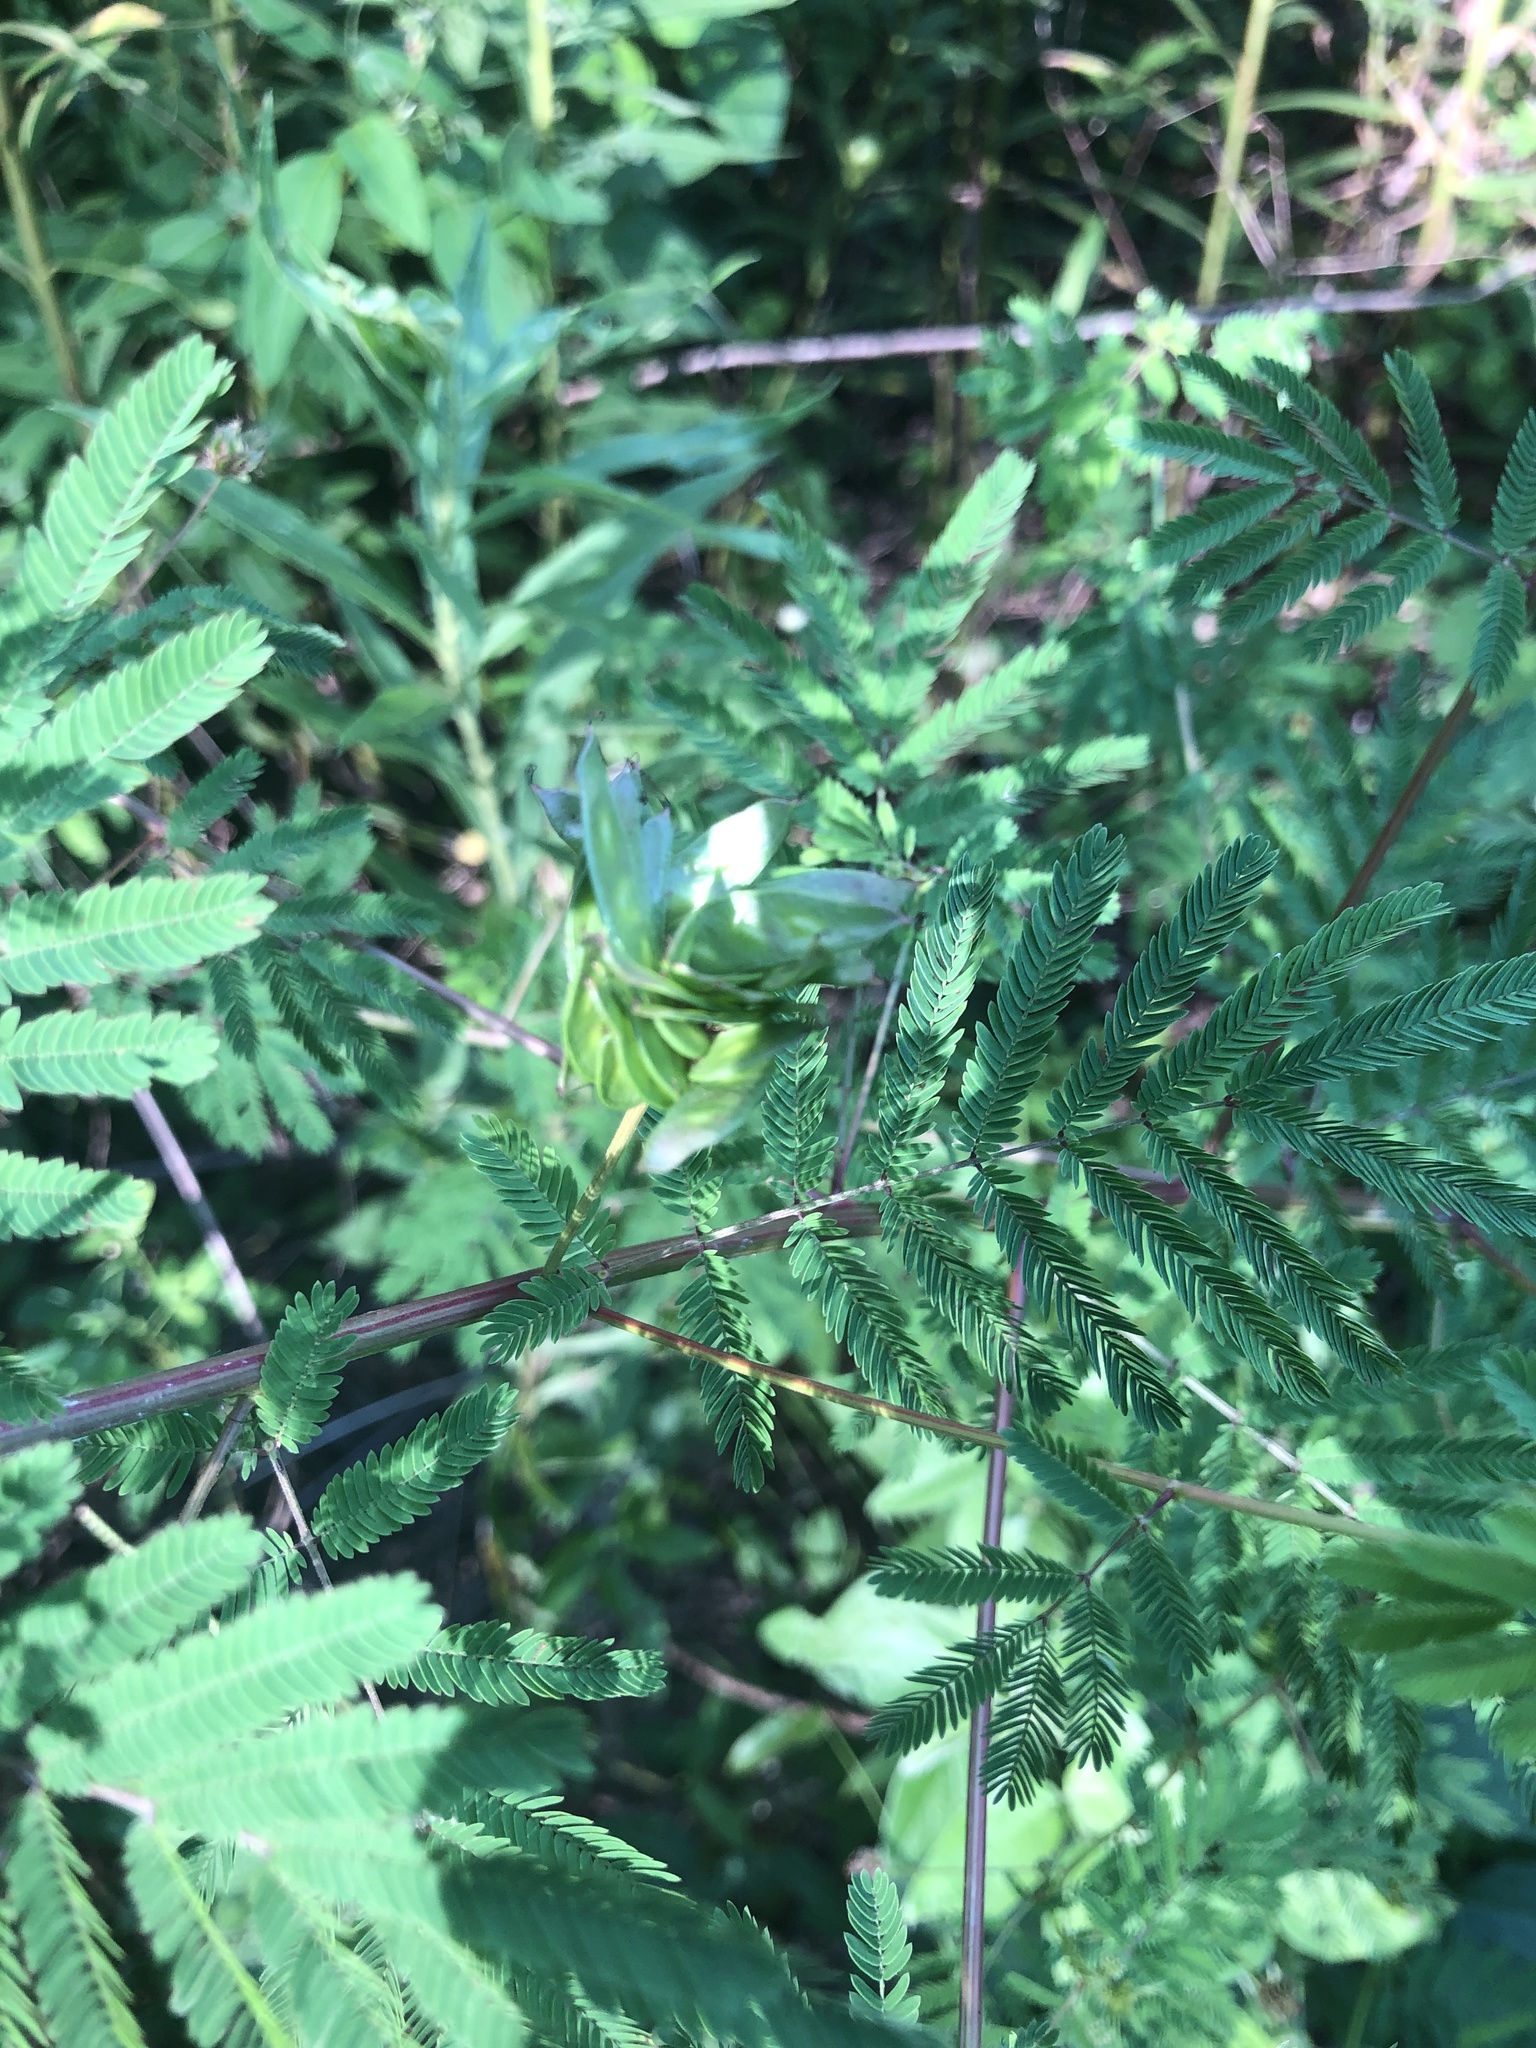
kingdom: Plantae
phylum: Tracheophyta
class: Magnoliopsida
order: Fabales
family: Fabaceae
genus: Desmanthus
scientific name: Desmanthus illinoensis
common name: Illinois bundle-flower
